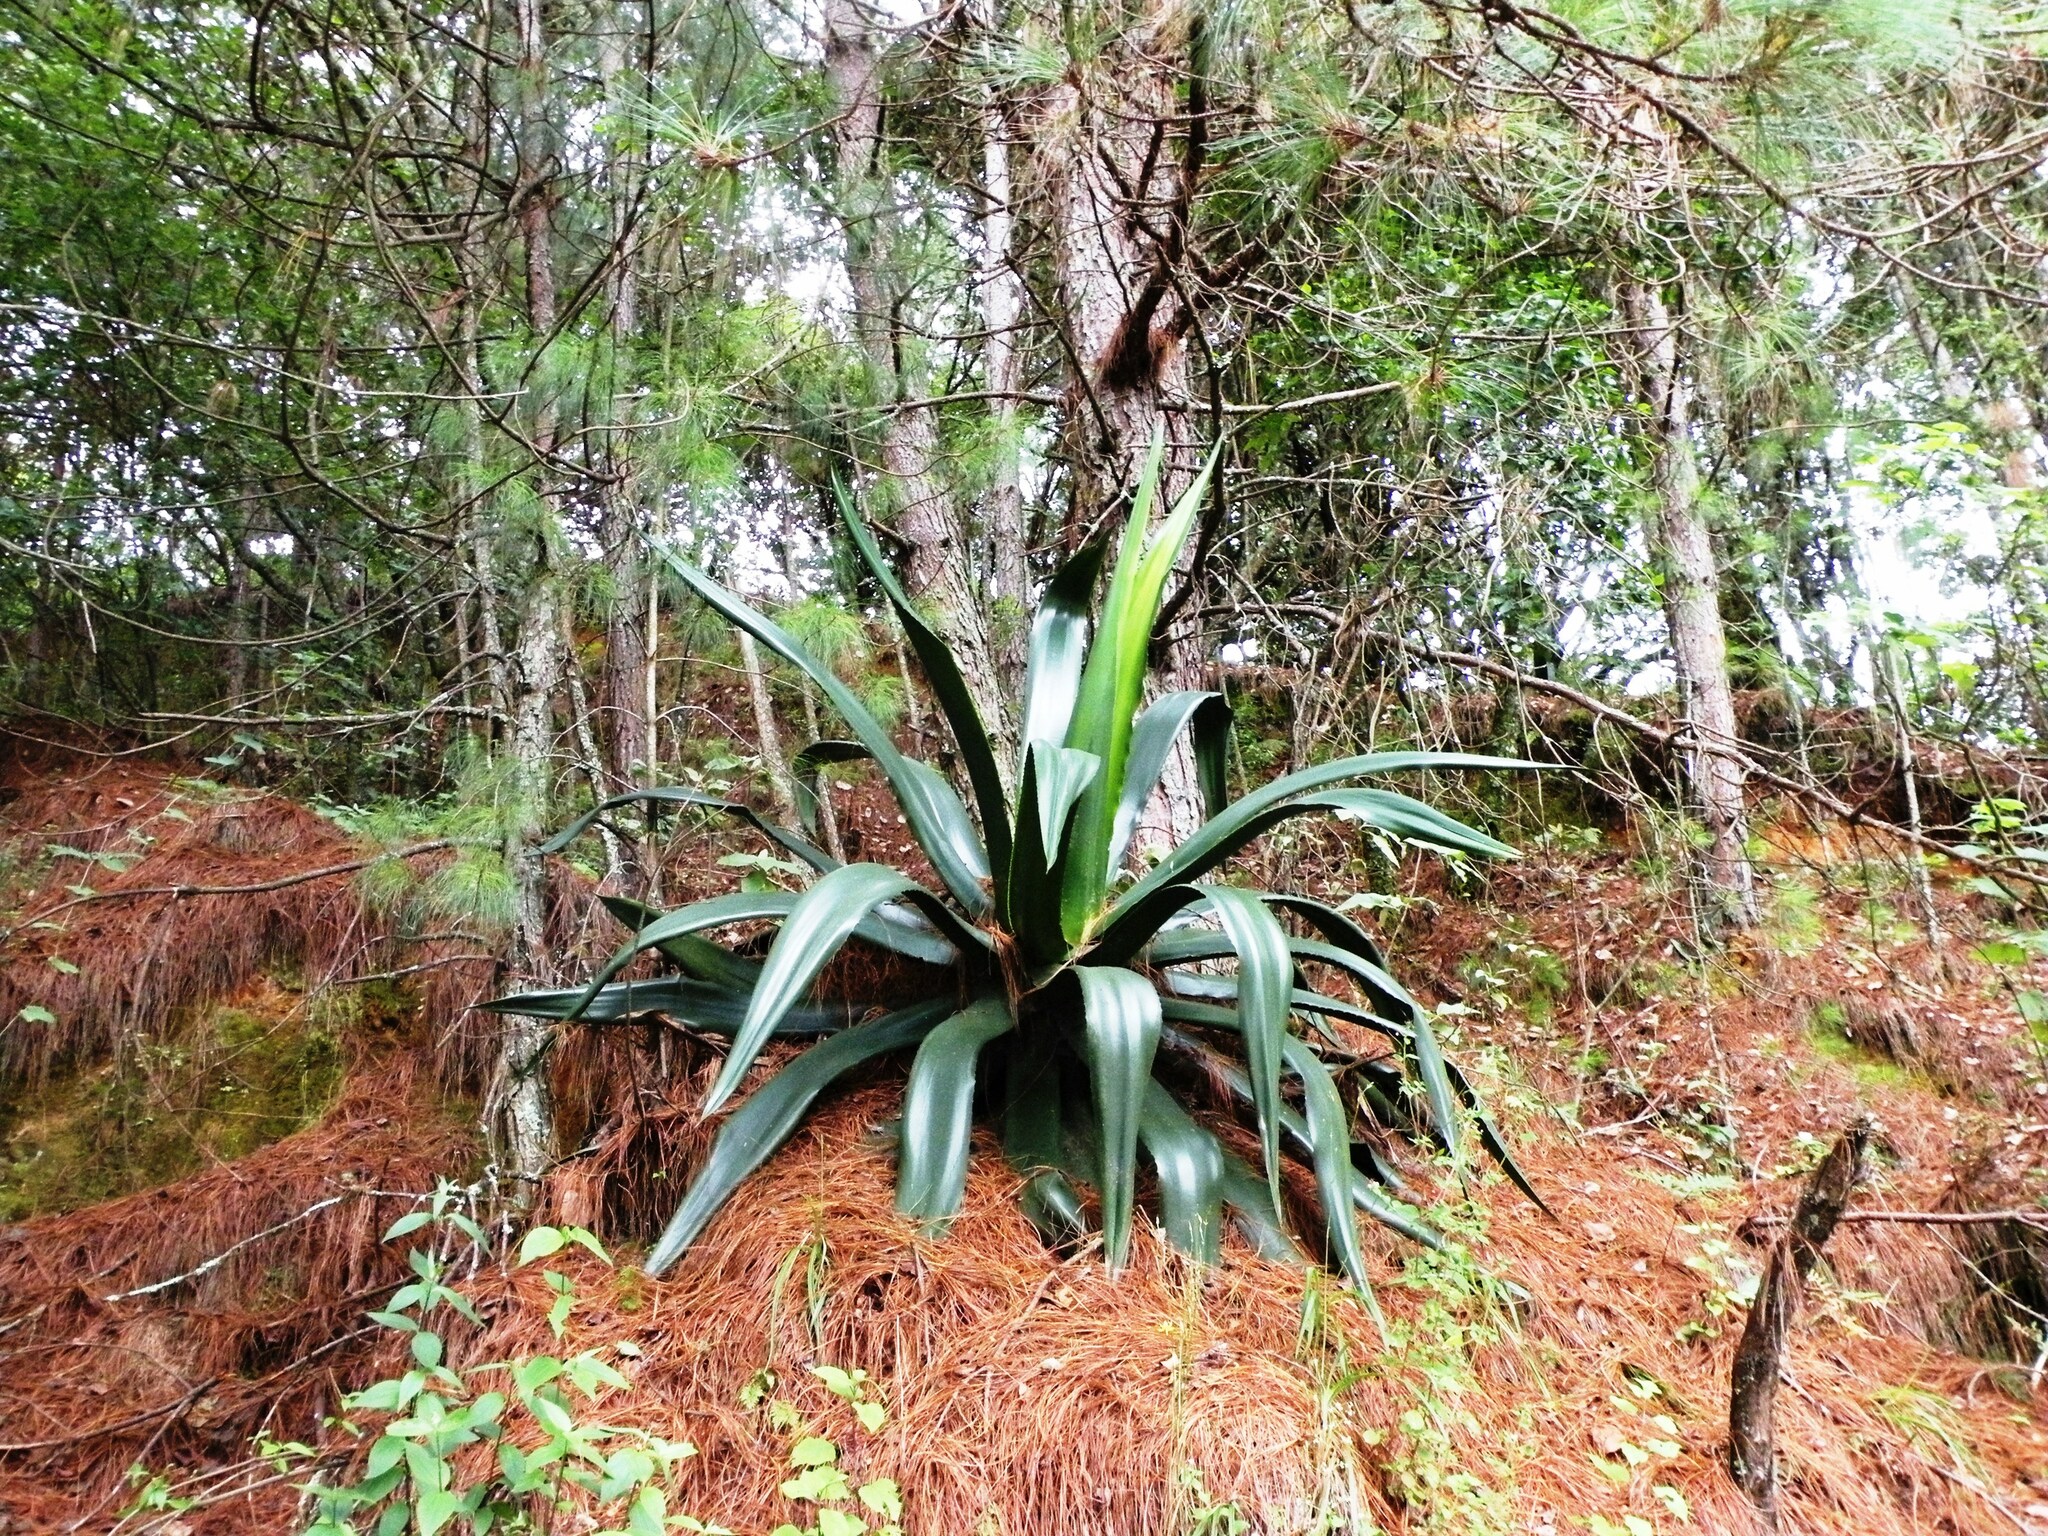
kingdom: Plantae
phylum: Tracheophyta
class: Liliopsida
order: Asparagales
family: Asparagaceae
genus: Agave
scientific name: Agave atrovirens
